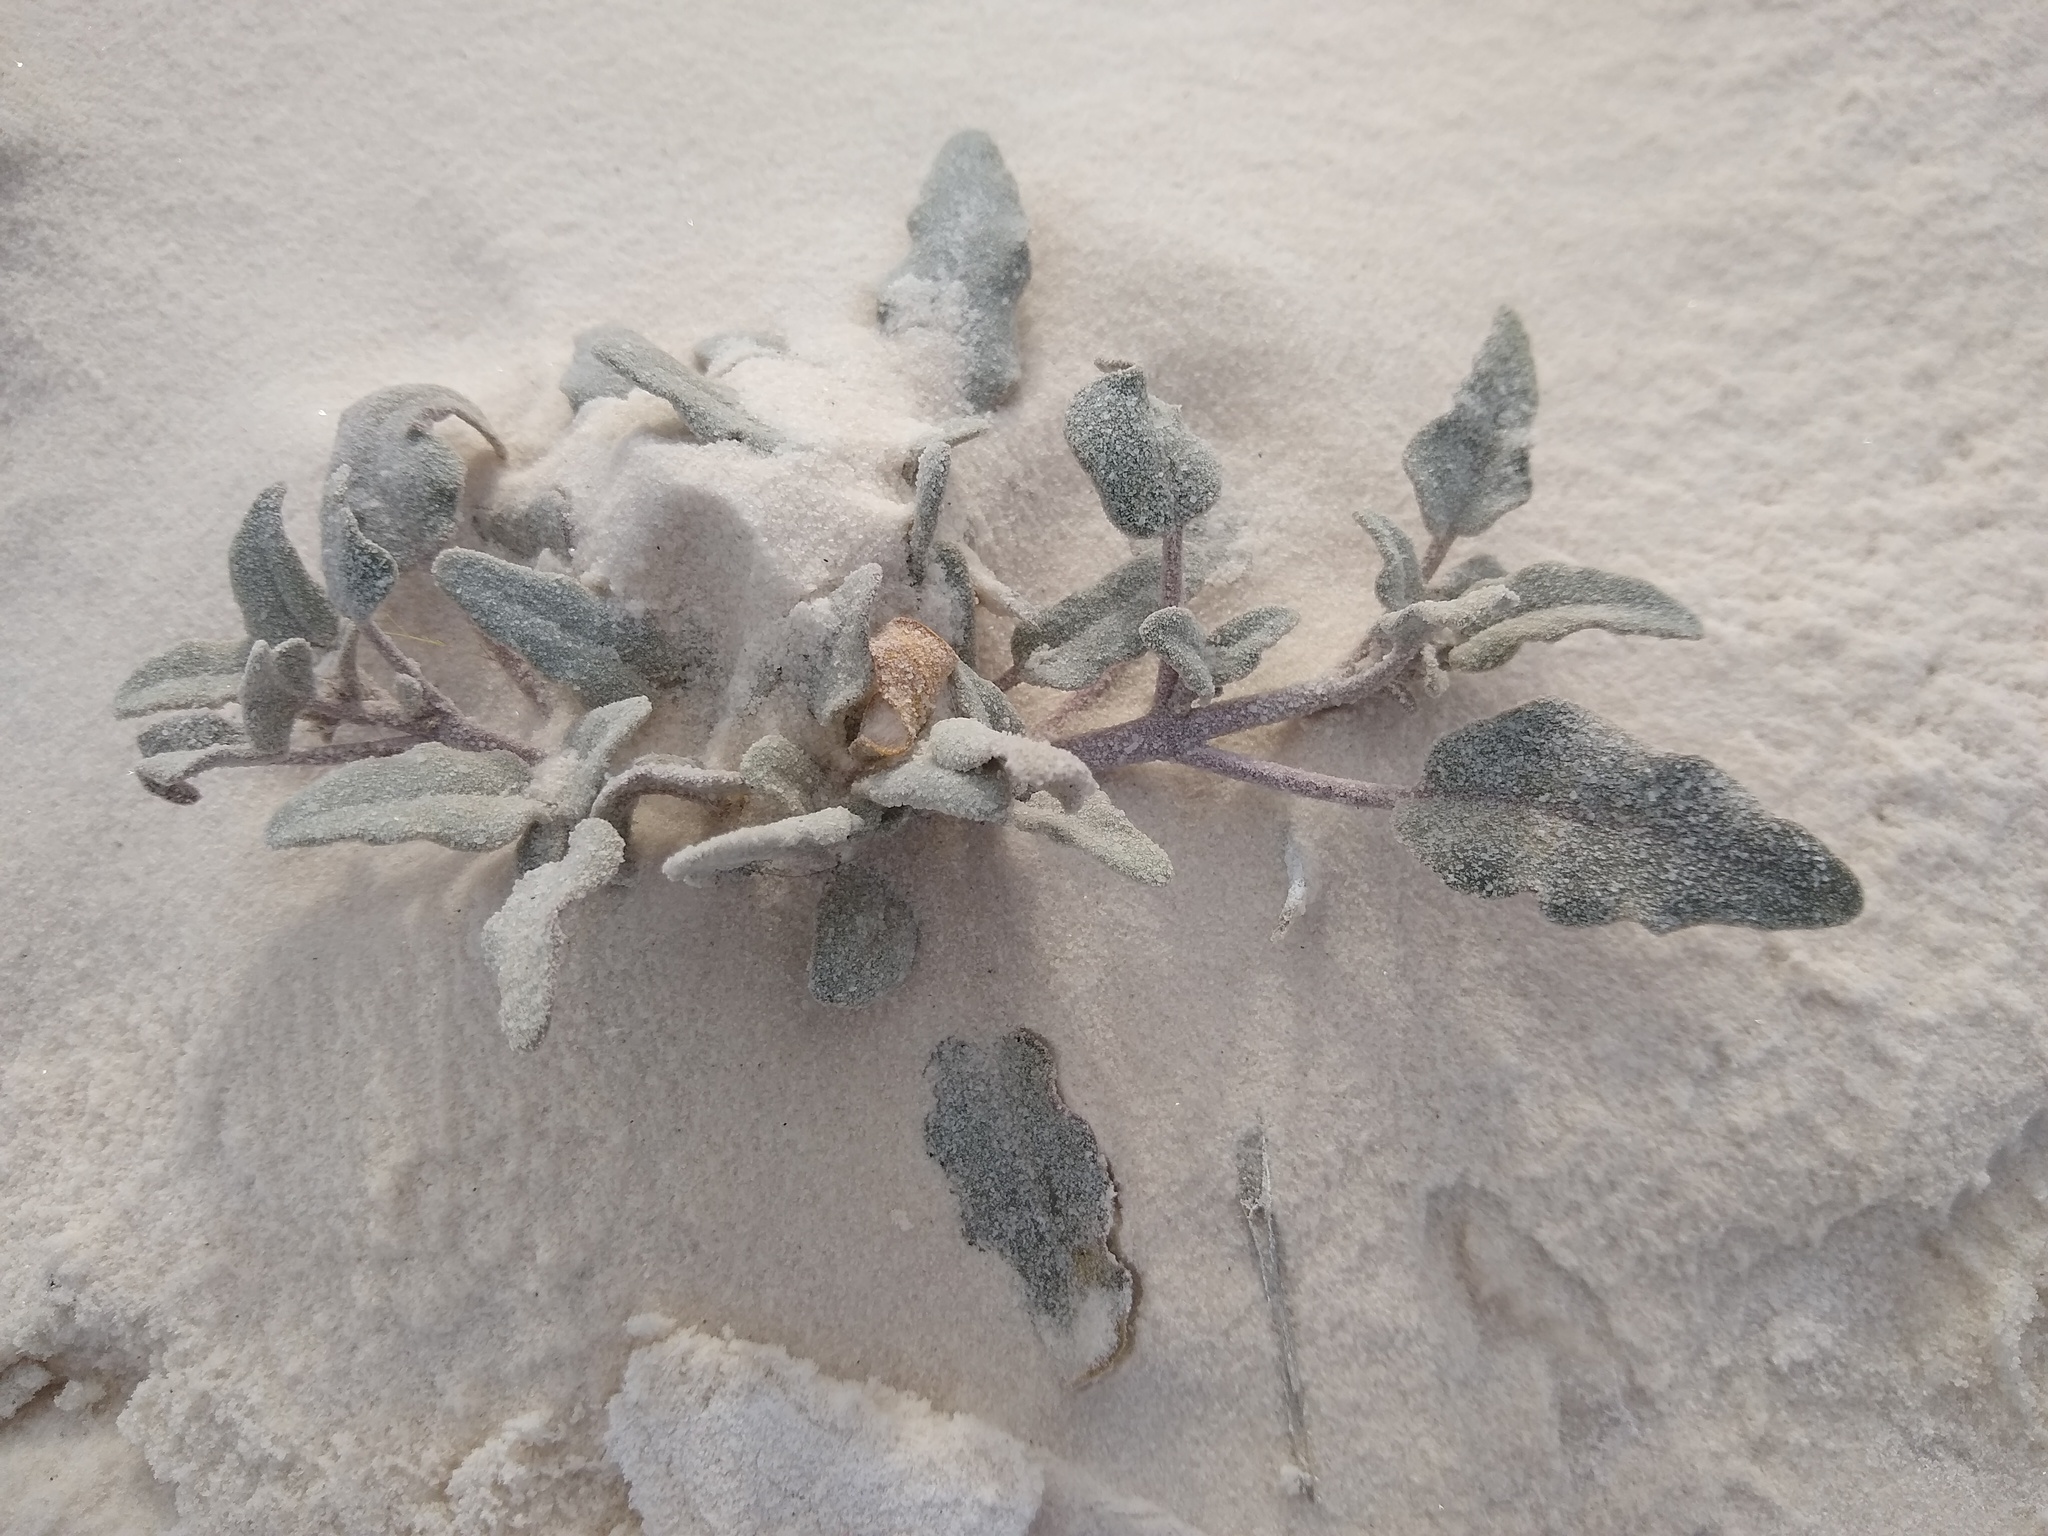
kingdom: Plantae
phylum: Tracheophyta
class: Magnoliopsida
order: Caryophyllales
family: Nyctaginaceae
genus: Abronia
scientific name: Abronia angustifolia
